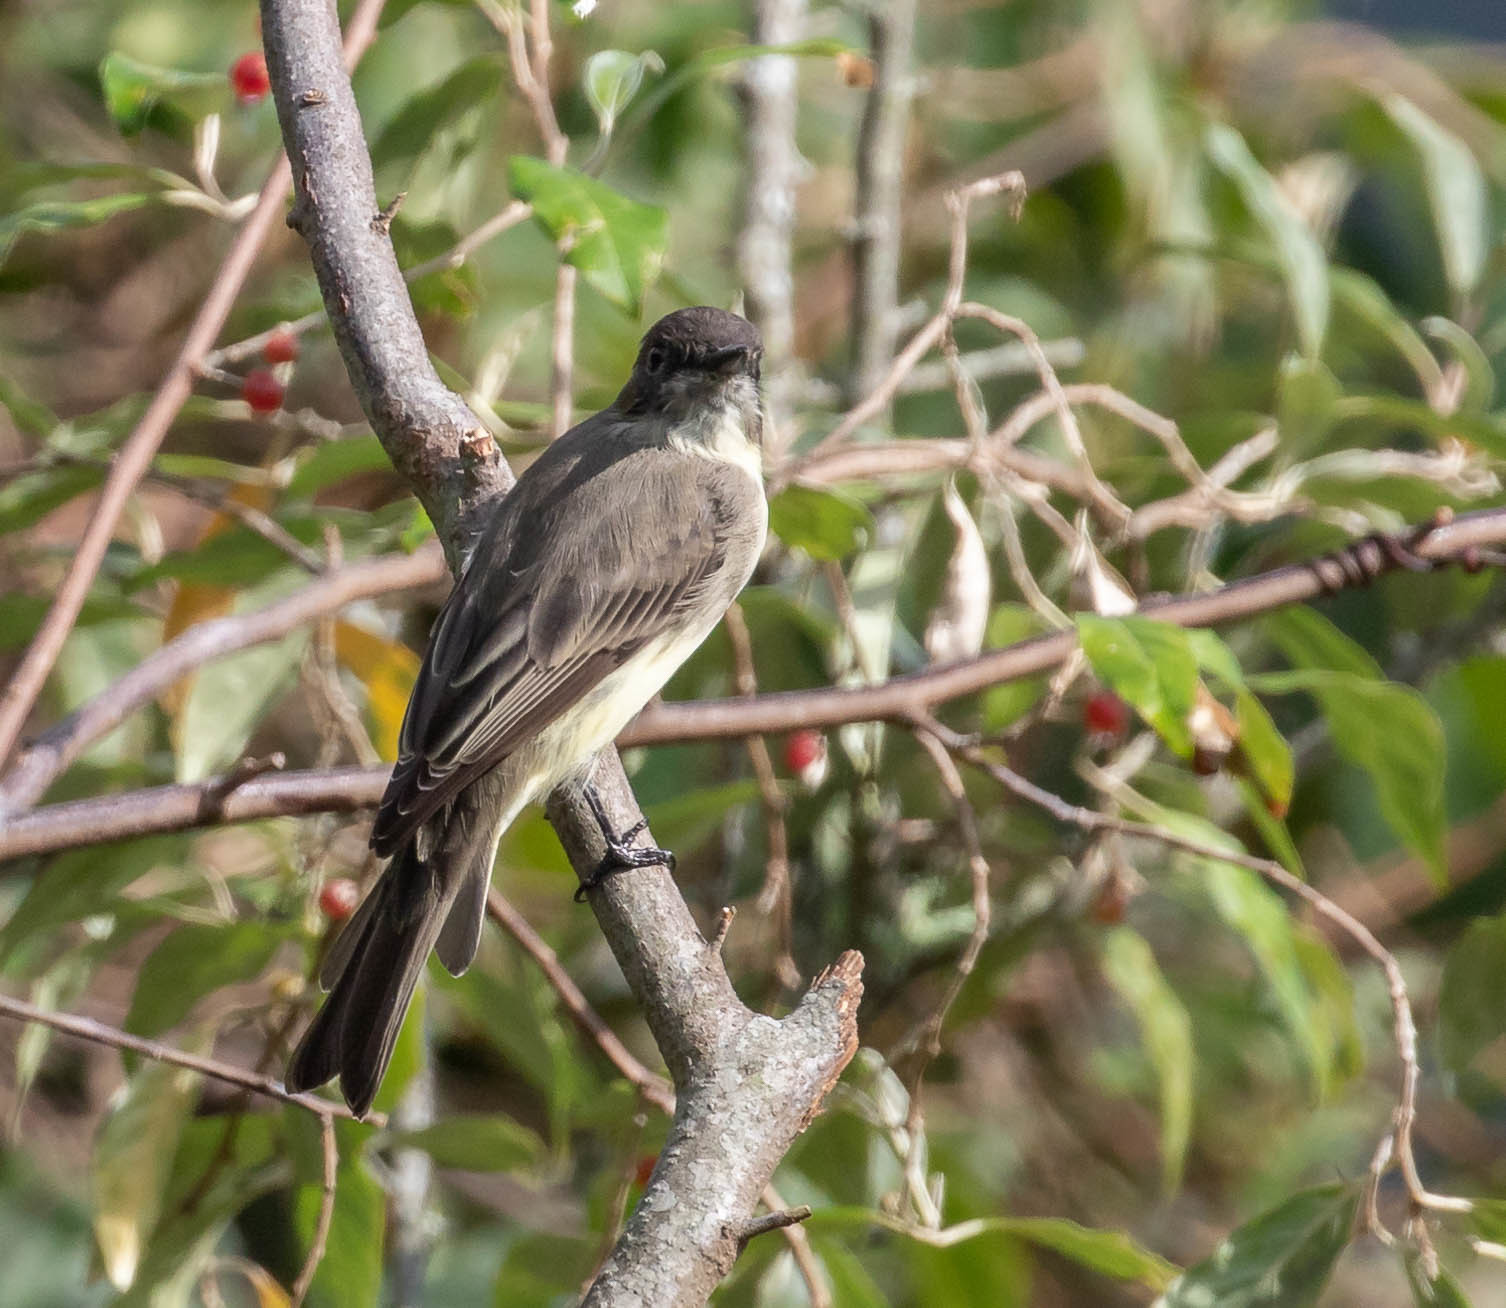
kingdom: Animalia
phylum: Chordata
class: Aves
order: Passeriformes
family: Tyrannidae
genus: Sayornis
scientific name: Sayornis phoebe
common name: Eastern phoebe
